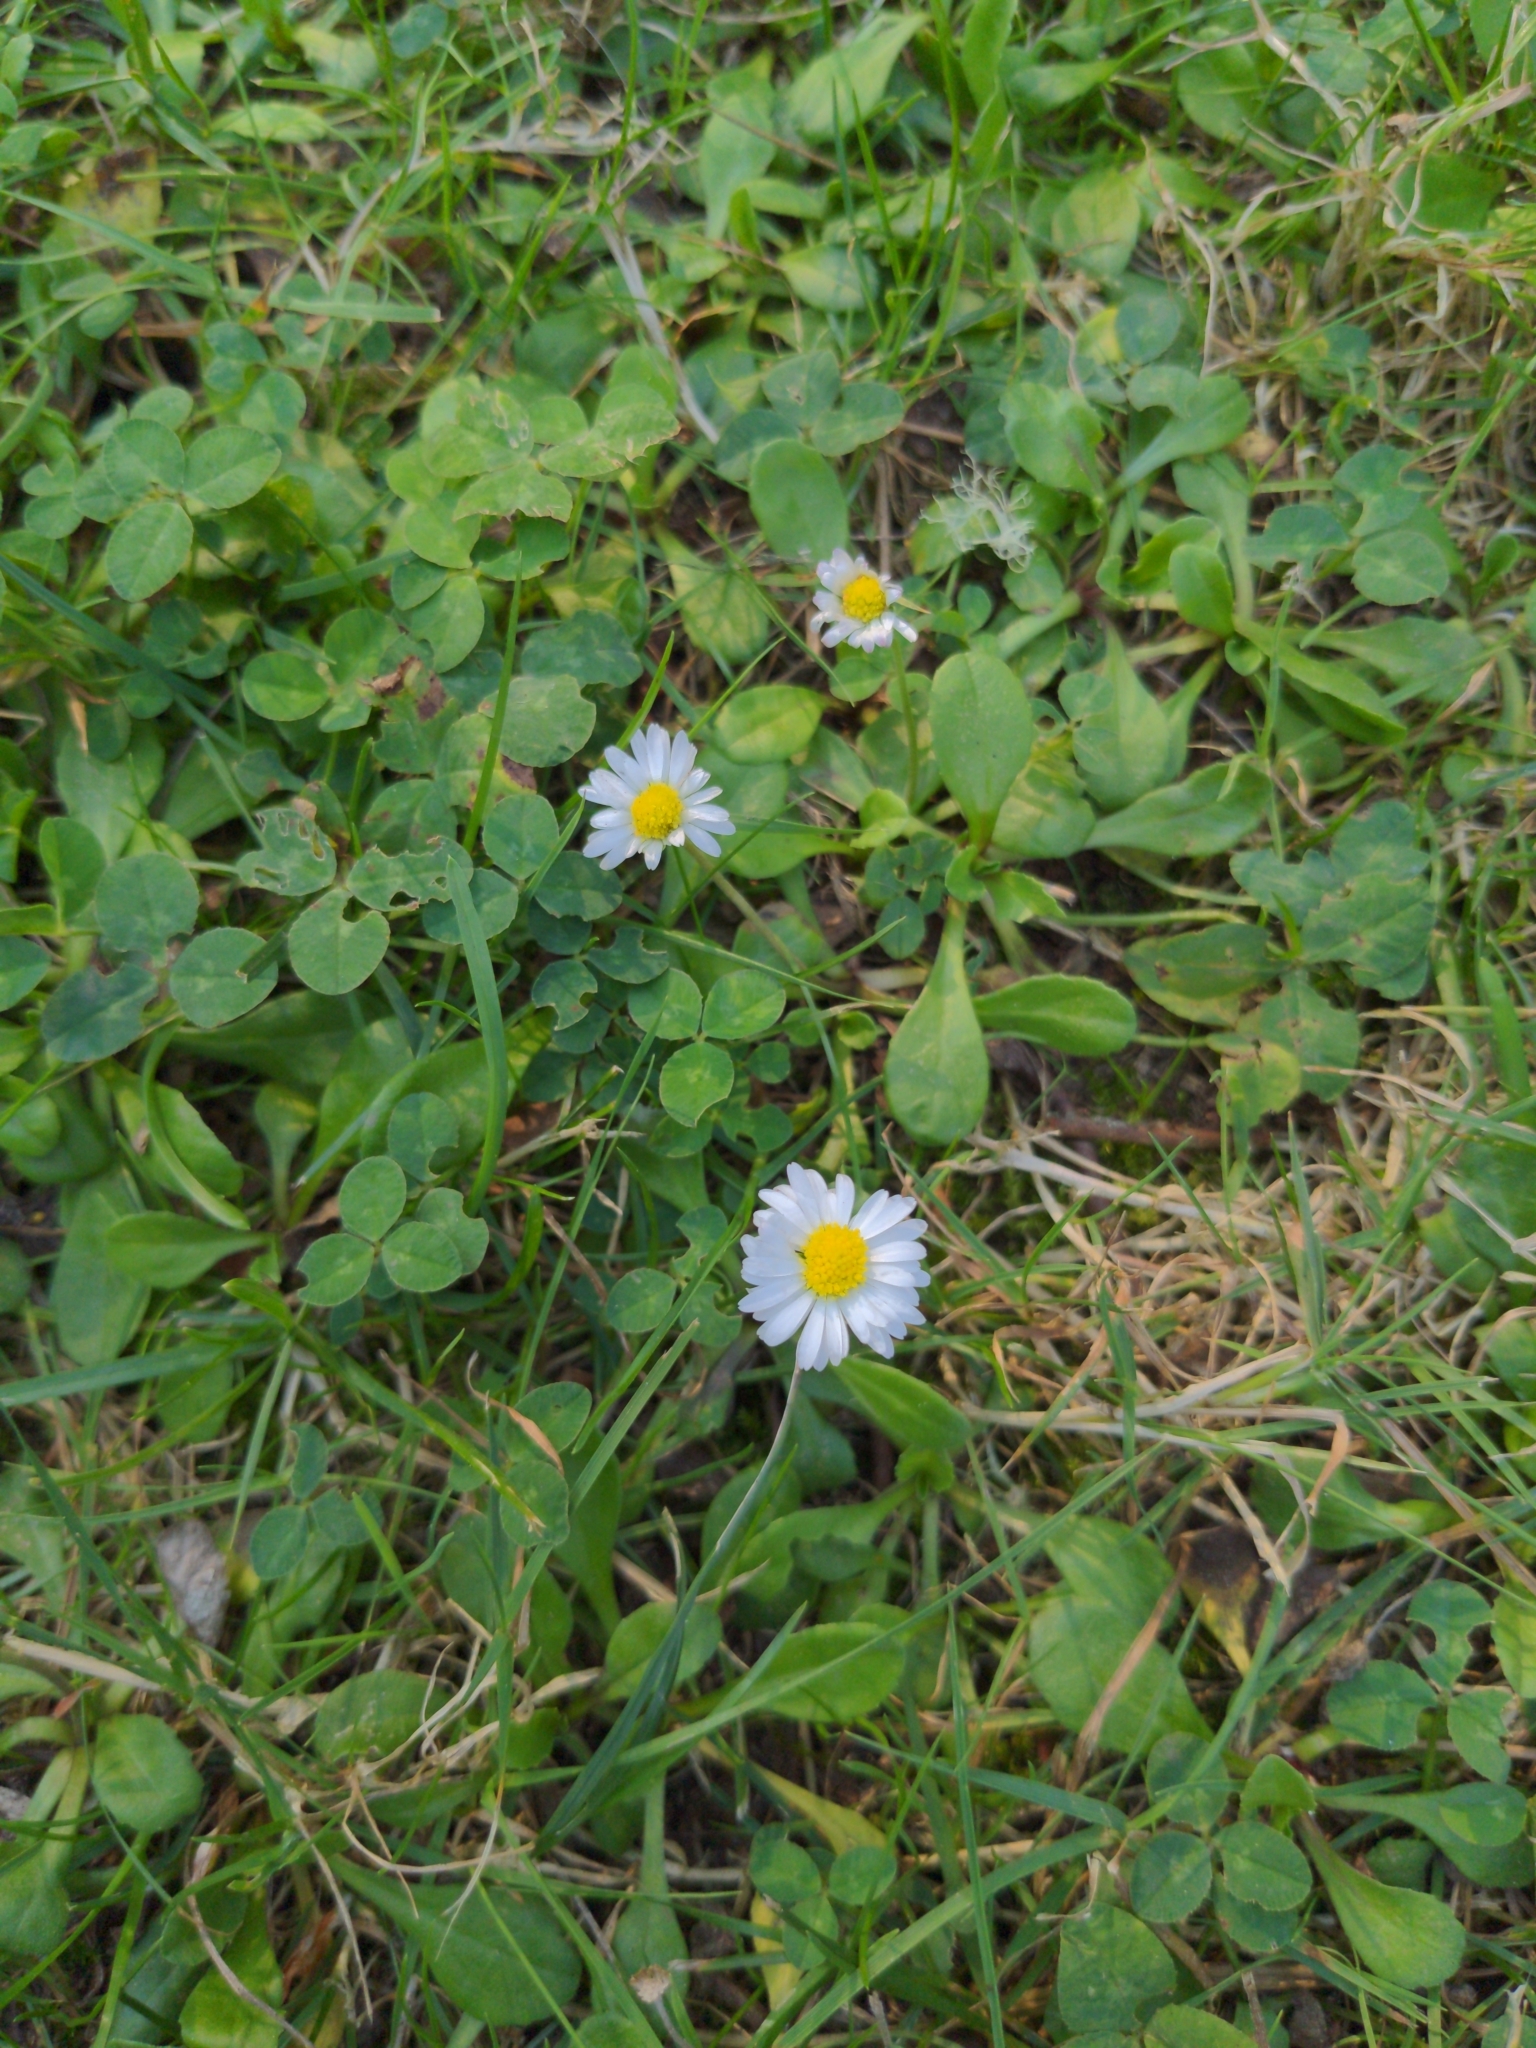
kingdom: Plantae
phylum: Tracheophyta
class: Magnoliopsida
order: Asterales
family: Asteraceae
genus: Bellis
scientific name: Bellis perennis
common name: Lawndaisy
